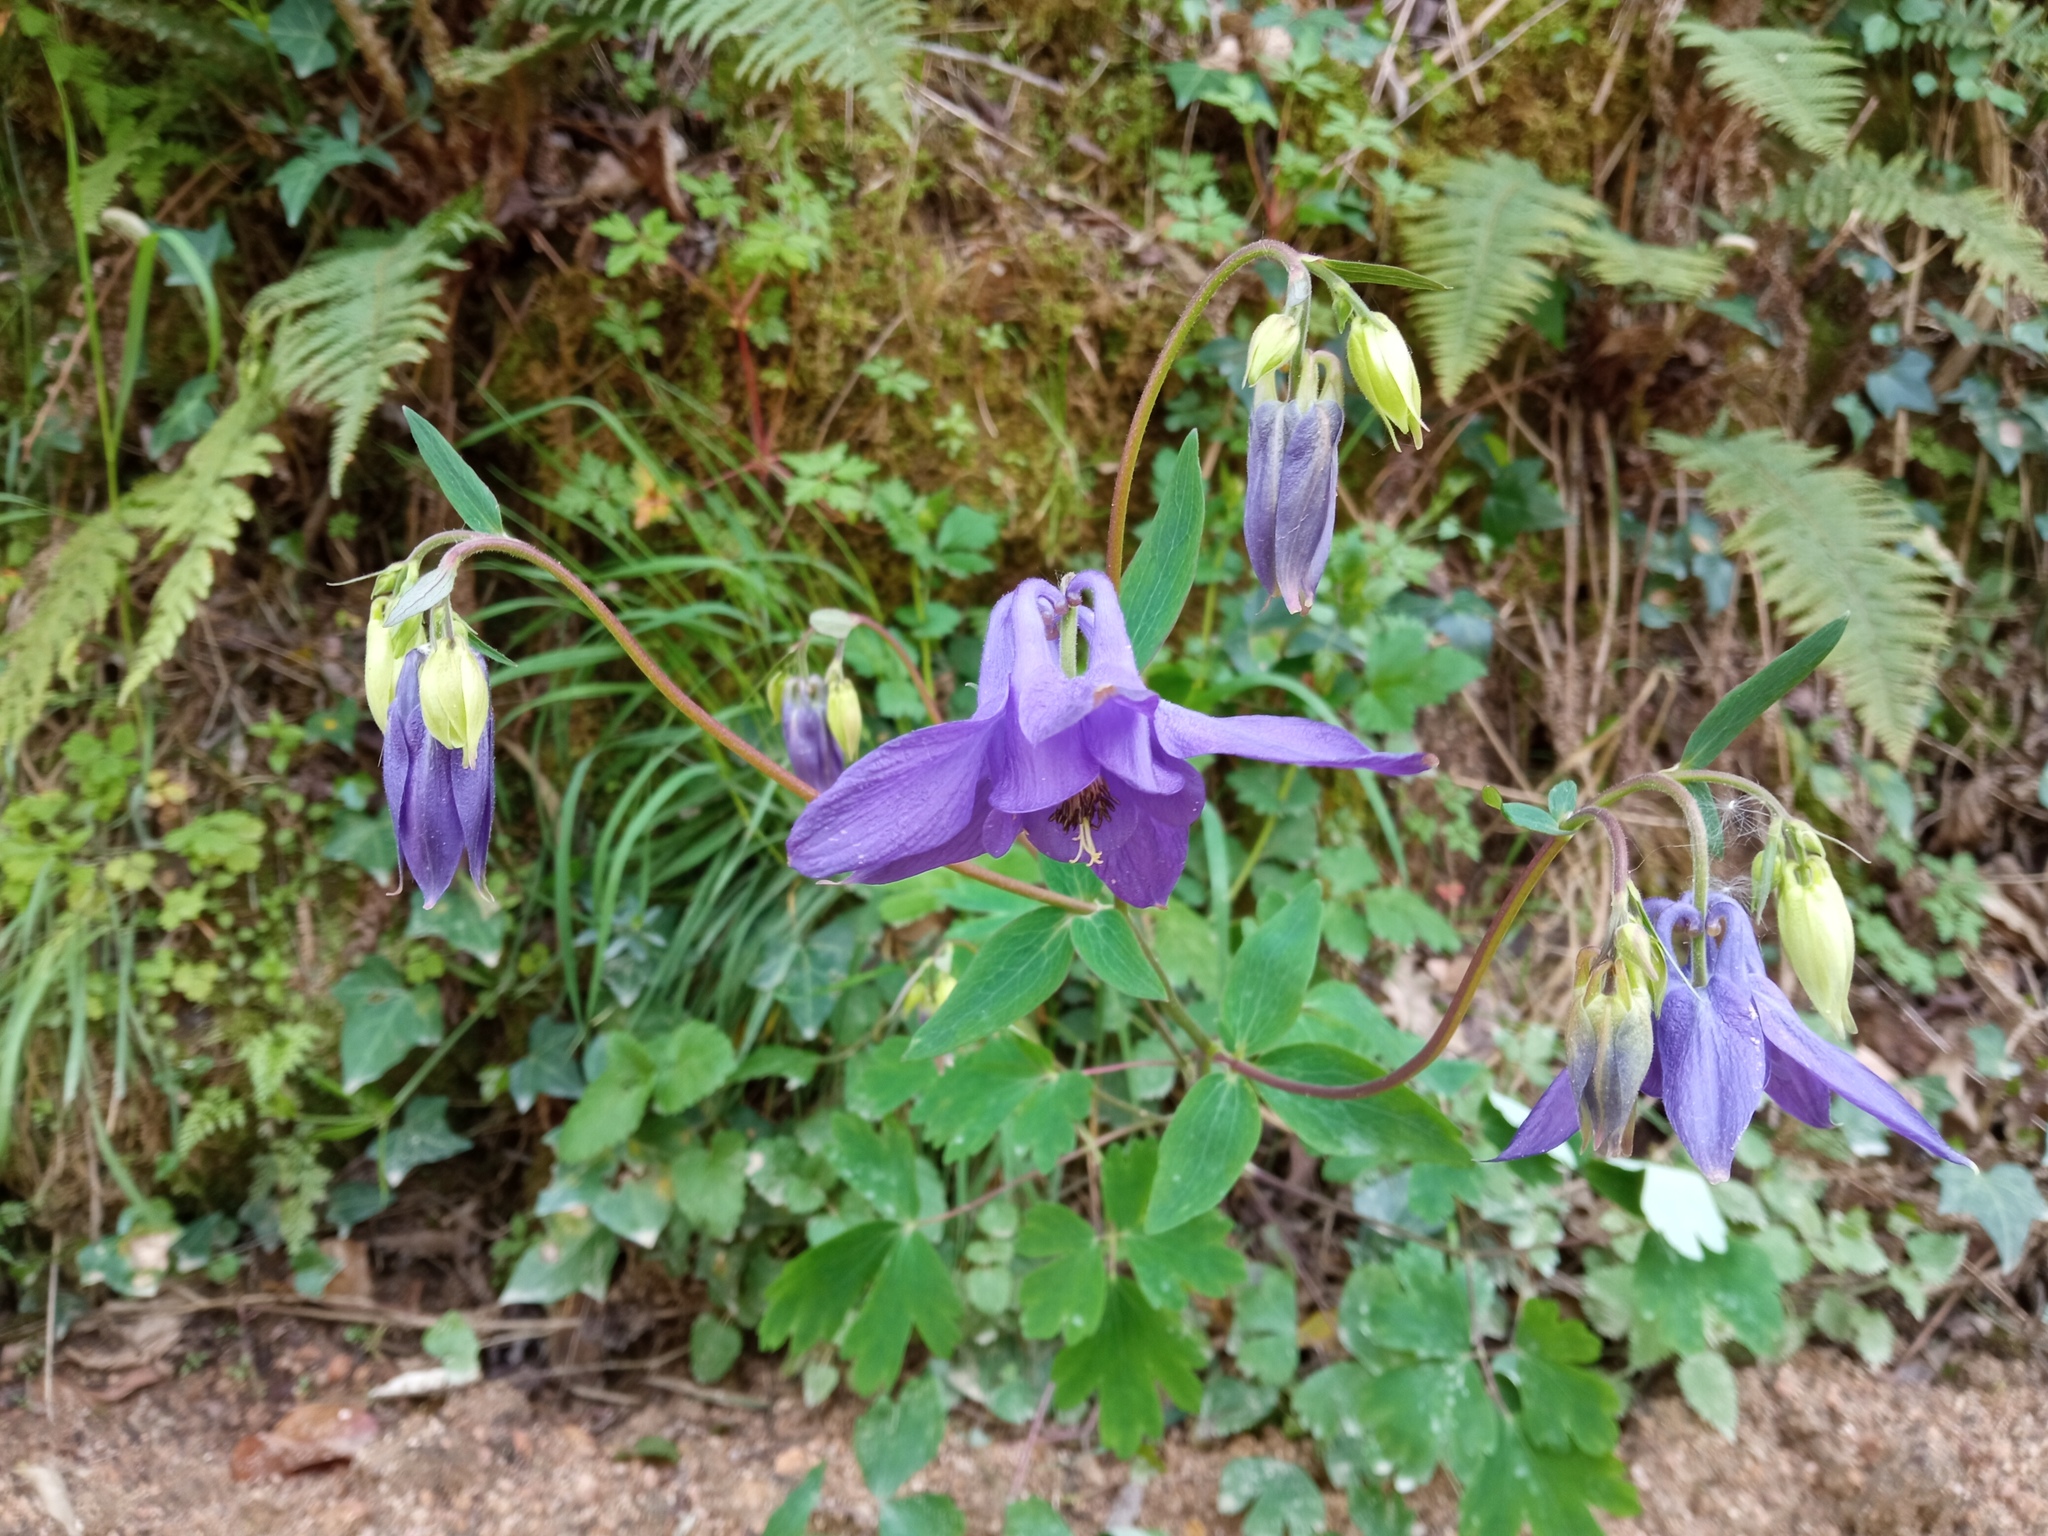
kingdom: Plantae
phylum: Tracheophyta
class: Magnoliopsida
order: Ranunculales
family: Ranunculaceae
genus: Aquilegia
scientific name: Aquilegia vulgaris
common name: Columbine
